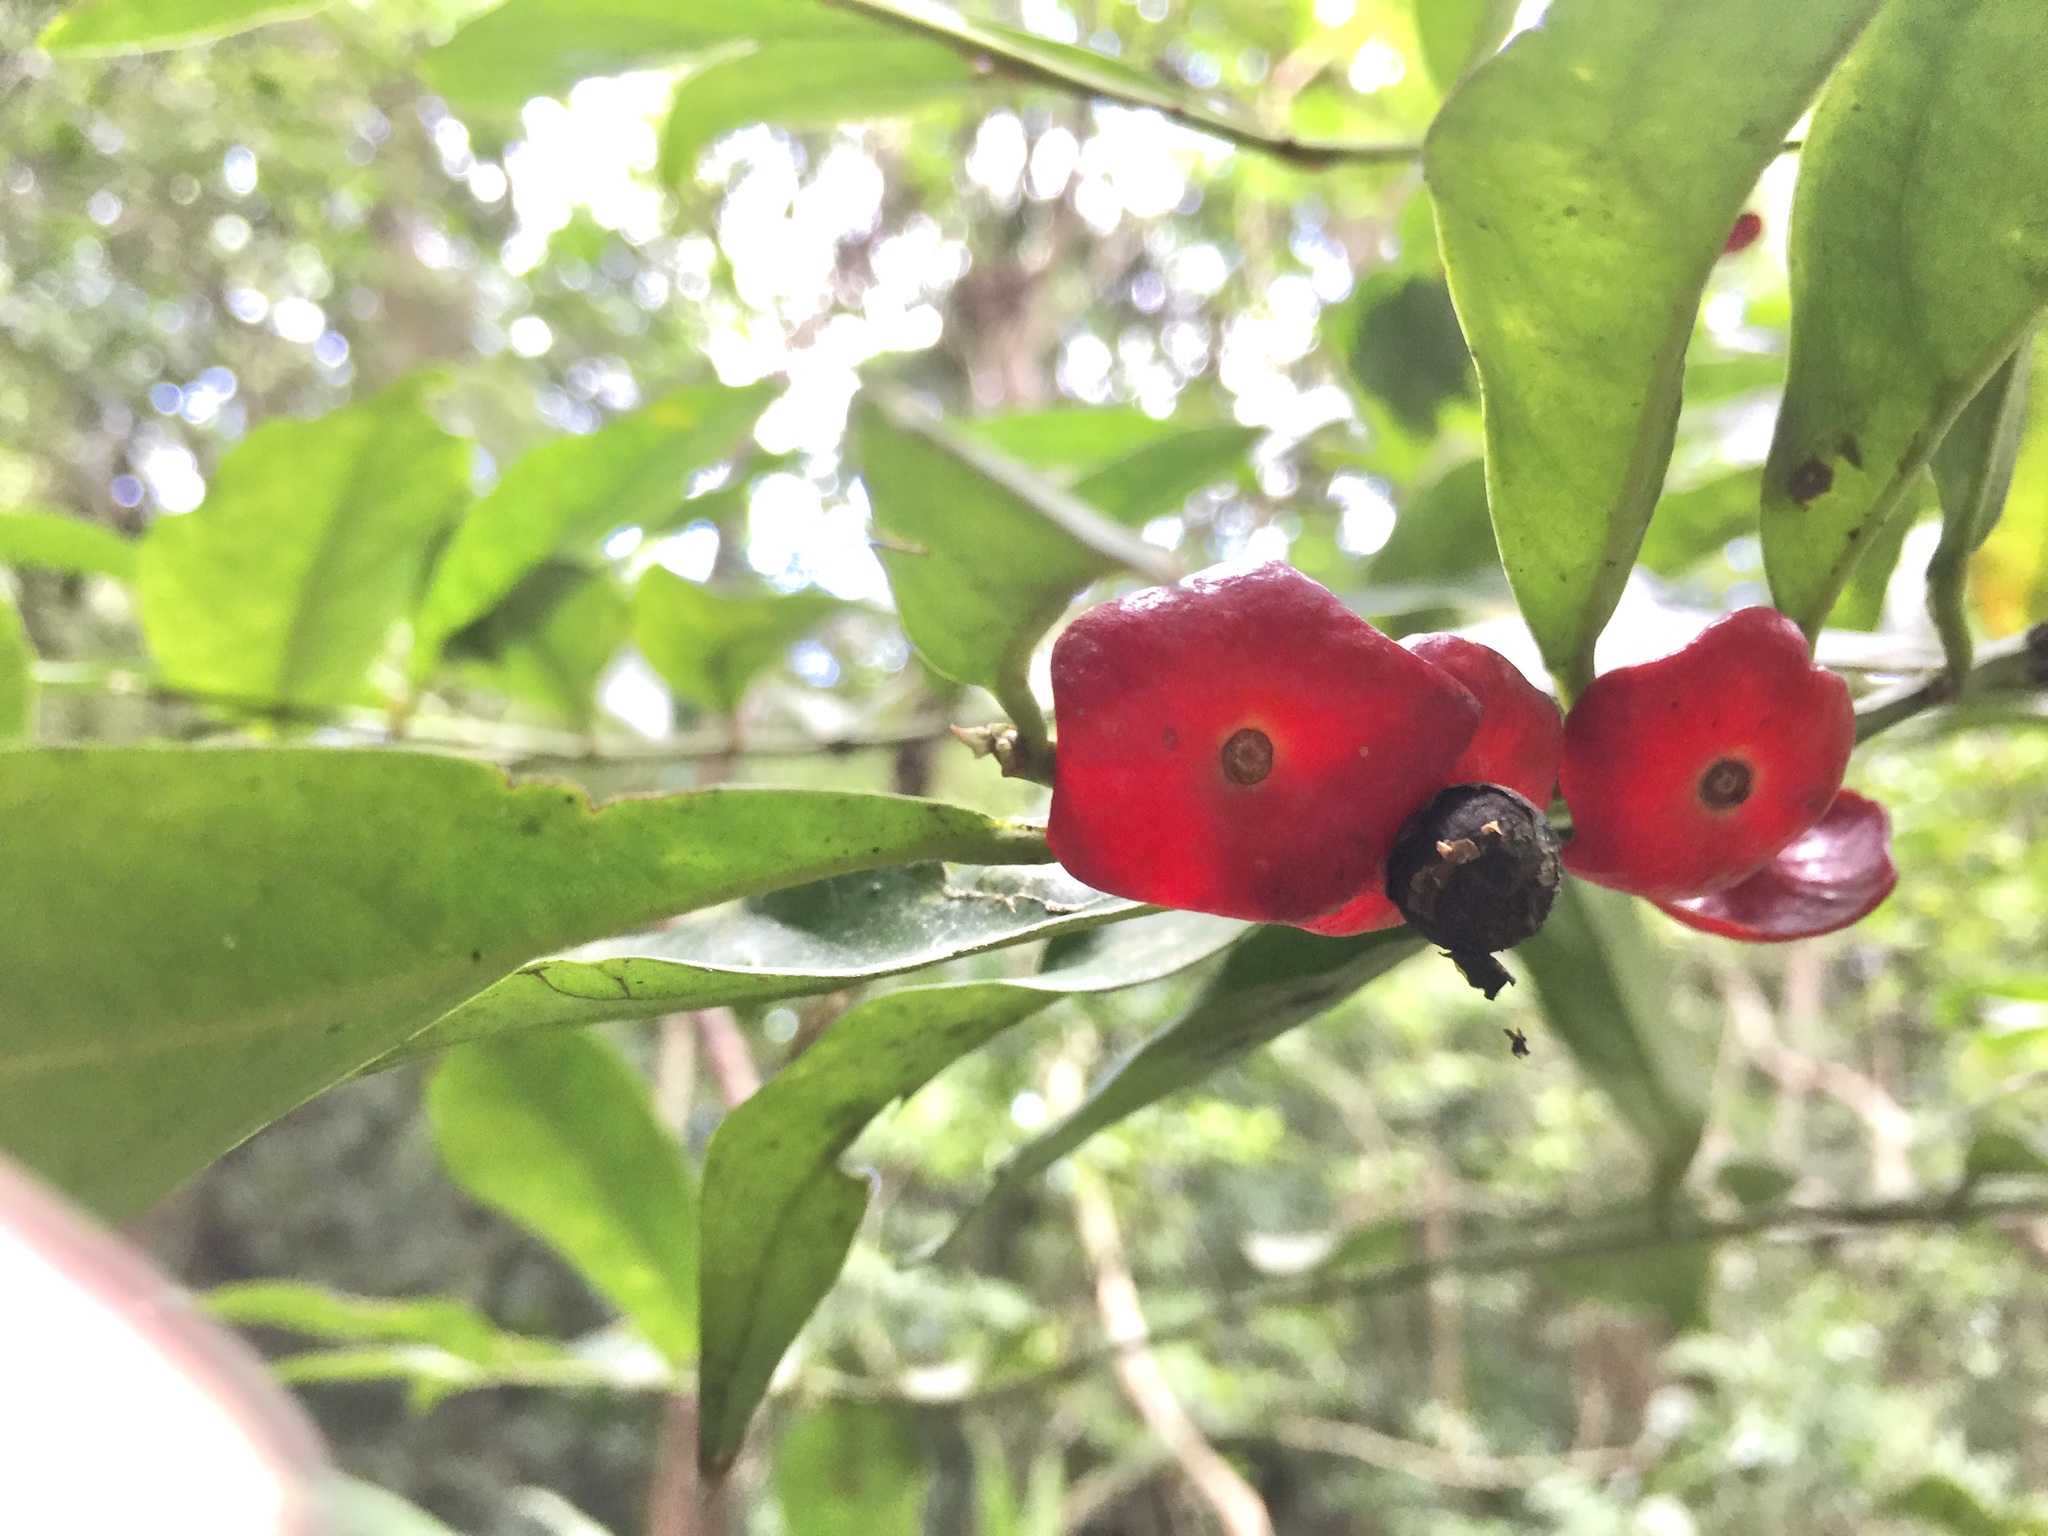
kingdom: Plantae
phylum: Tracheophyta
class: Magnoliopsida
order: Santalales
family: Erythropalaceae
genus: Heisteria
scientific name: Heisteria macrophylla
